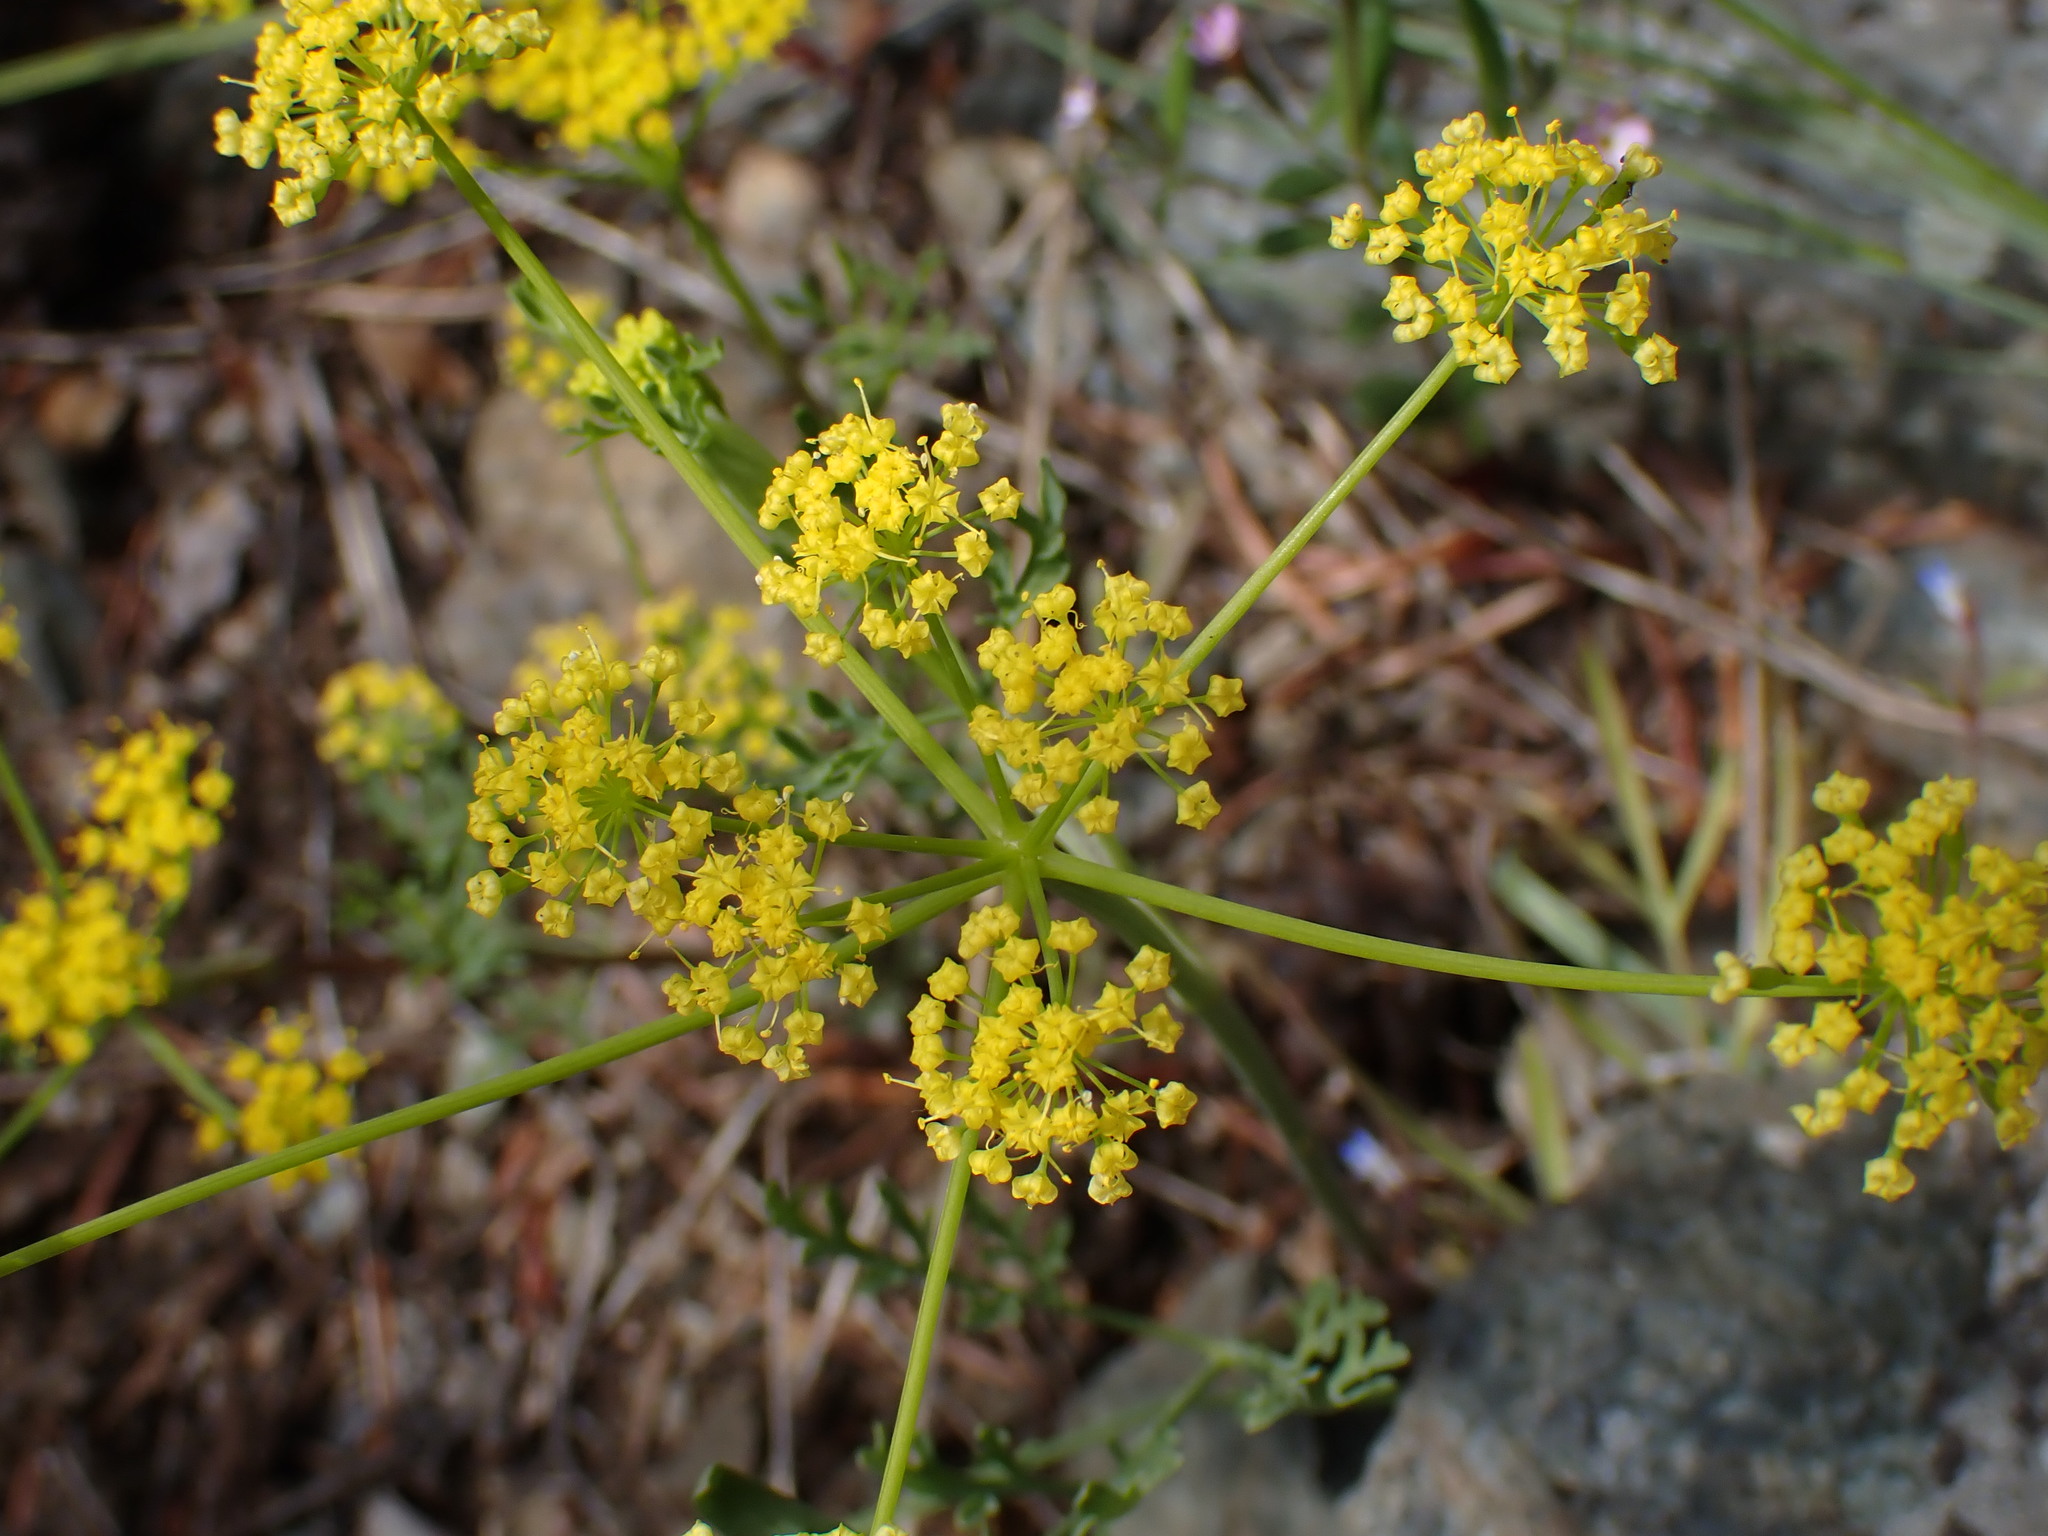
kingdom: Plantae
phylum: Tracheophyta
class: Magnoliopsida
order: Apiales
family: Apiaceae
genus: Lomatium
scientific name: Lomatium ambiguum
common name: Lacy lomatium
